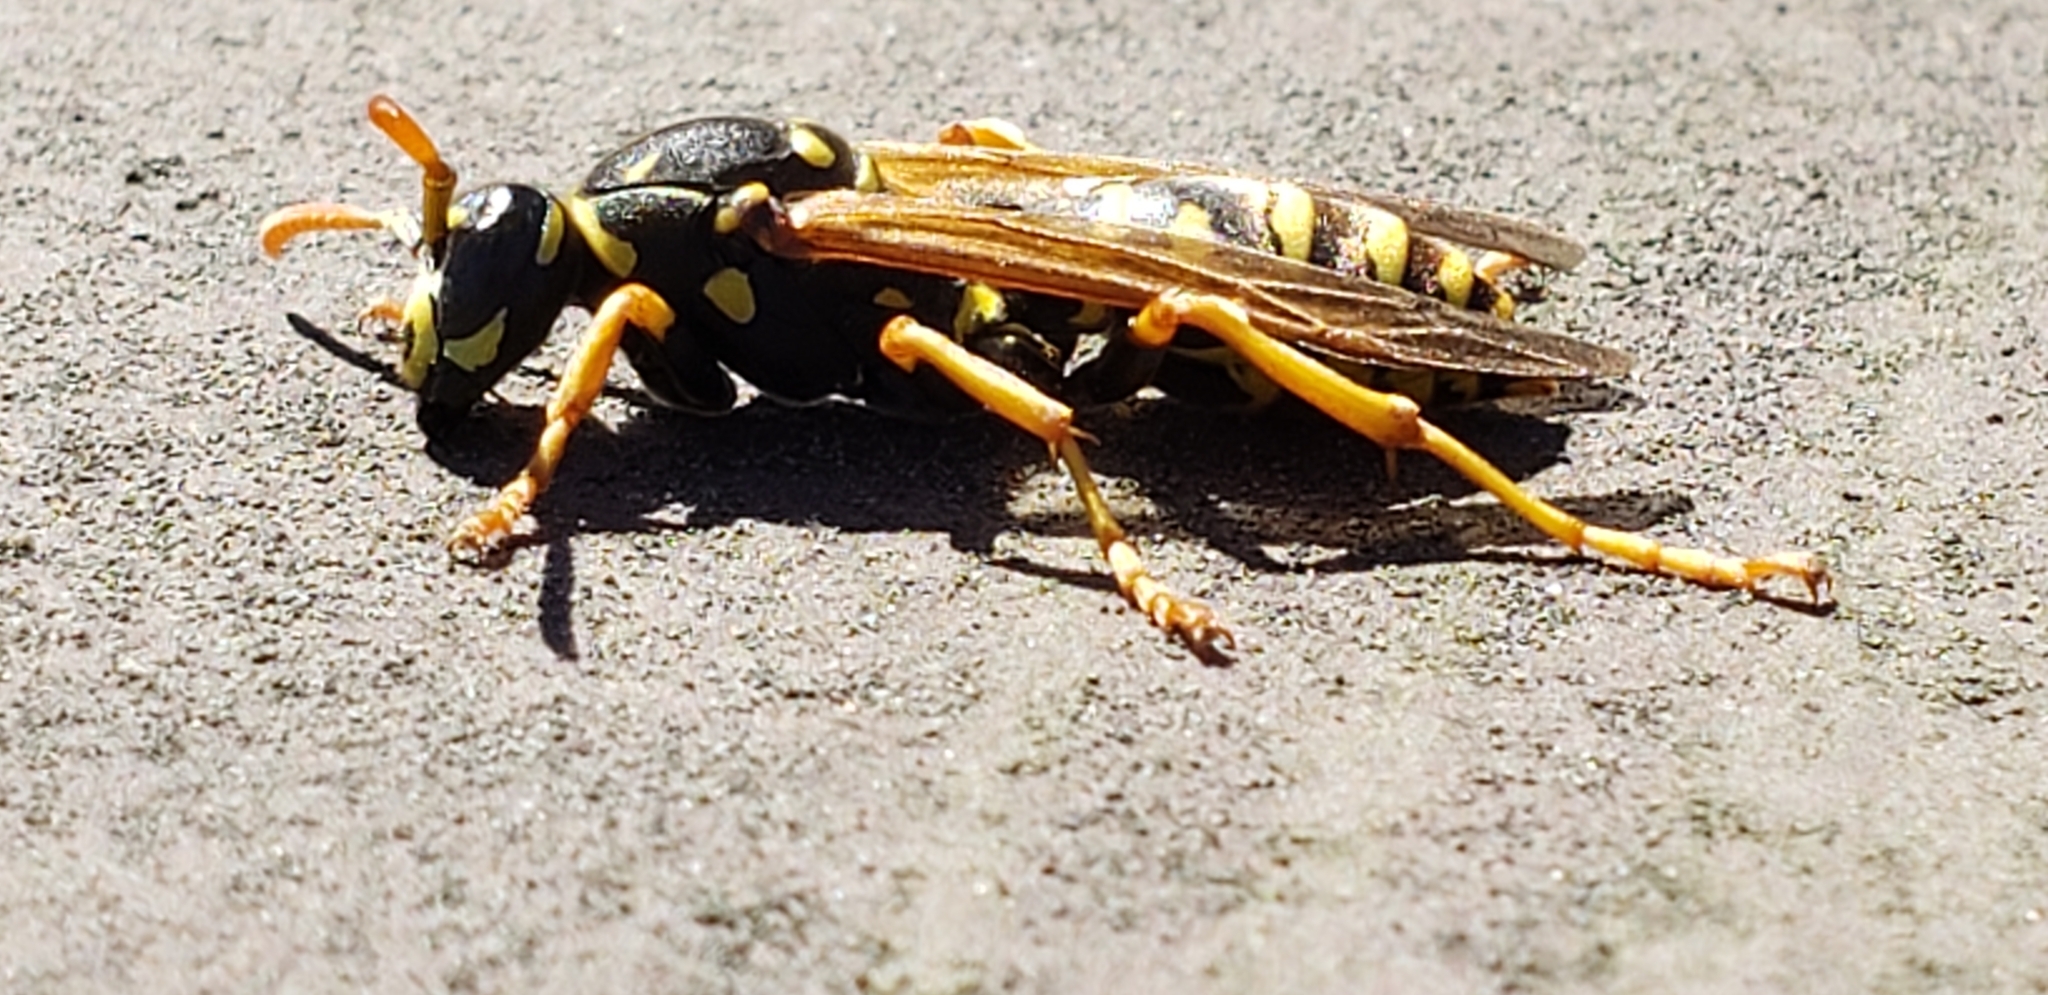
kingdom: Animalia
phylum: Arthropoda
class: Insecta
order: Hymenoptera
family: Eumenidae
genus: Polistes
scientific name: Polistes dominula
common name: Paper wasp
